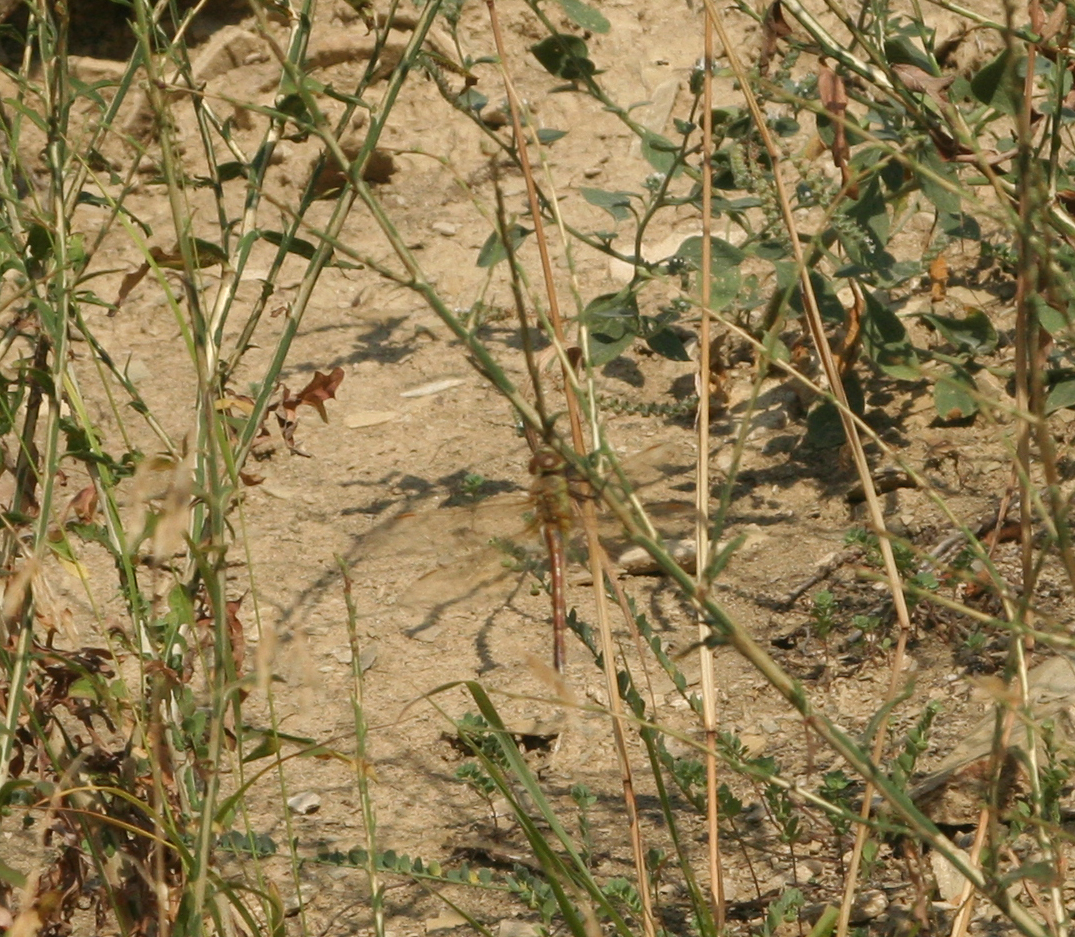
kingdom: Animalia
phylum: Arthropoda
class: Insecta
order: Odonata
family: Aeshnidae
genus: Anax
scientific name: Anax ephippiger
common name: Vagrant emperor
